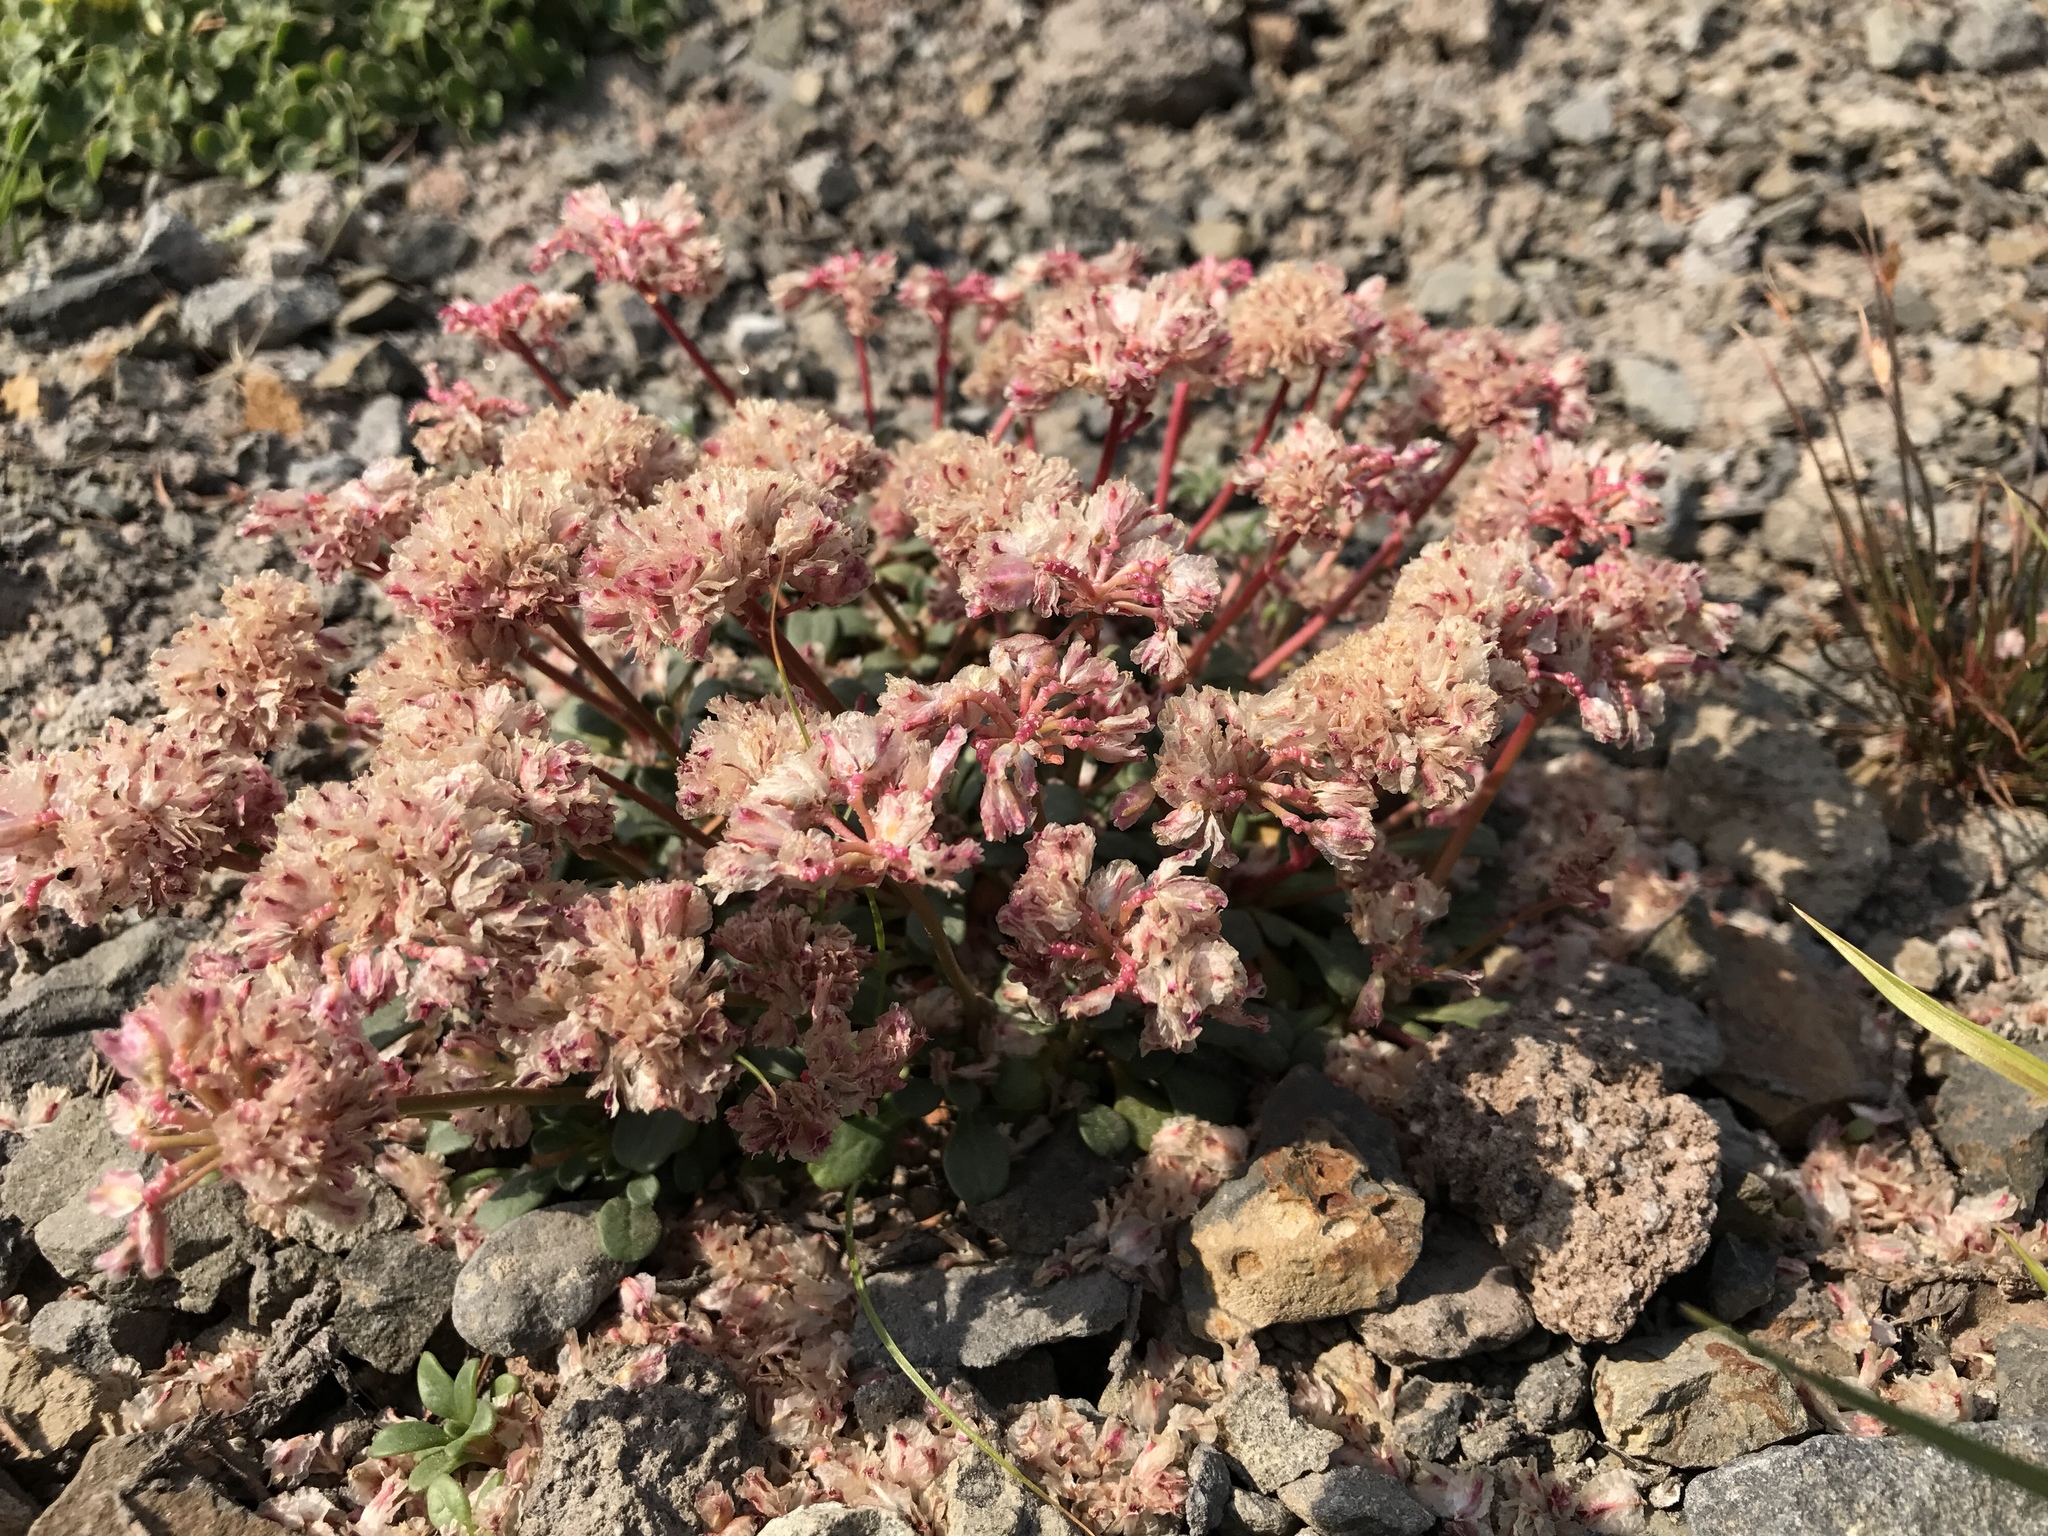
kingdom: Plantae
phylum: Tracheophyta
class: Magnoliopsida
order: Caryophyllales
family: Montiaceae
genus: Calyptridium
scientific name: Calyptridium umbellatum
